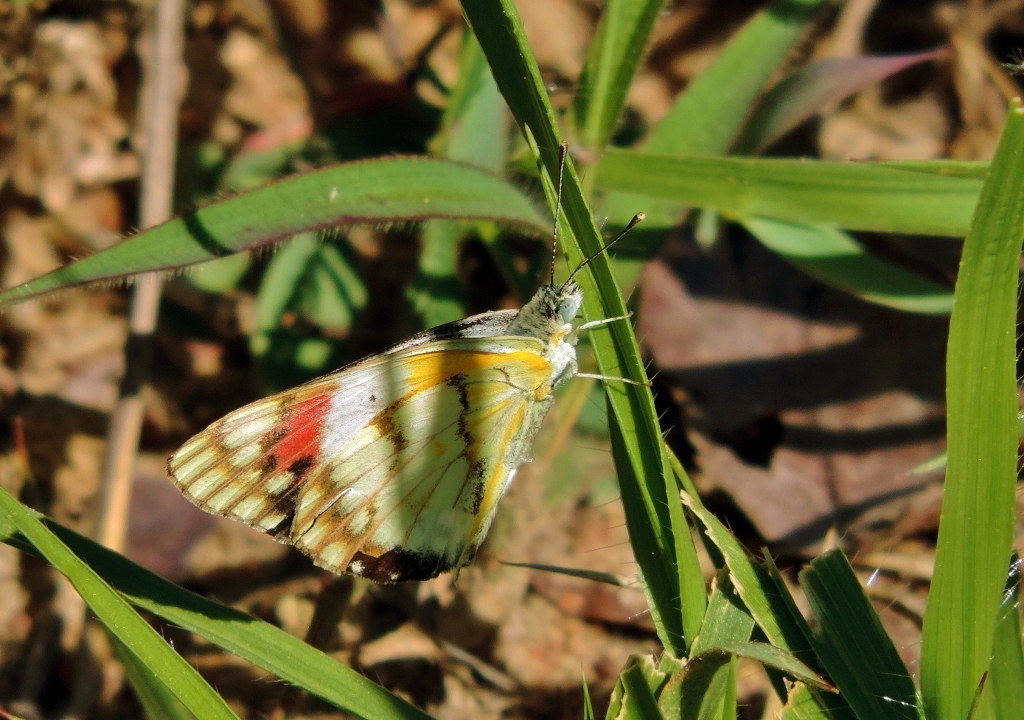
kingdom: Animalia
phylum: Arthropoda
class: Insecta
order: Lepidoptera
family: Pieridae
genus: Colotis
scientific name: Colotis celimene
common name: Lilac tip
